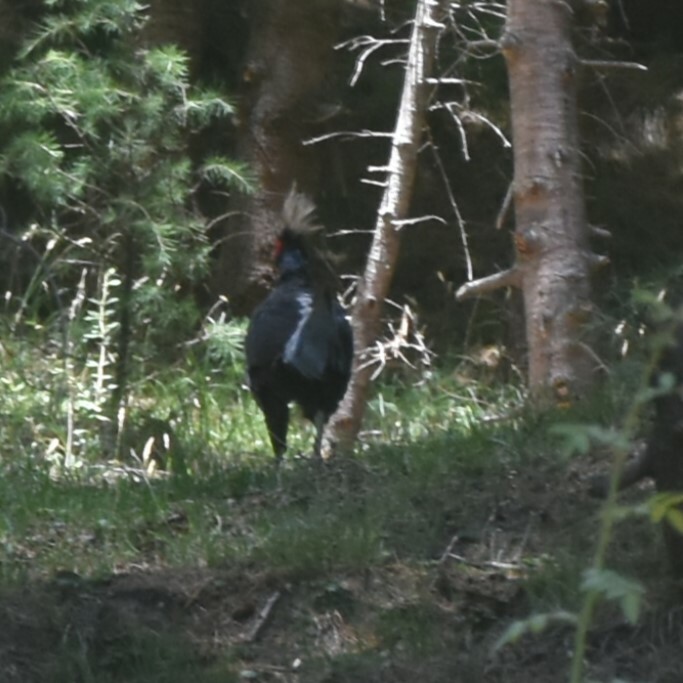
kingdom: Animalia
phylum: Chordata
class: Aves
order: Galliformes
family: Phasianidae
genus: Lophura
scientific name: Lophura leucomelanos
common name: Kalij pheasant
